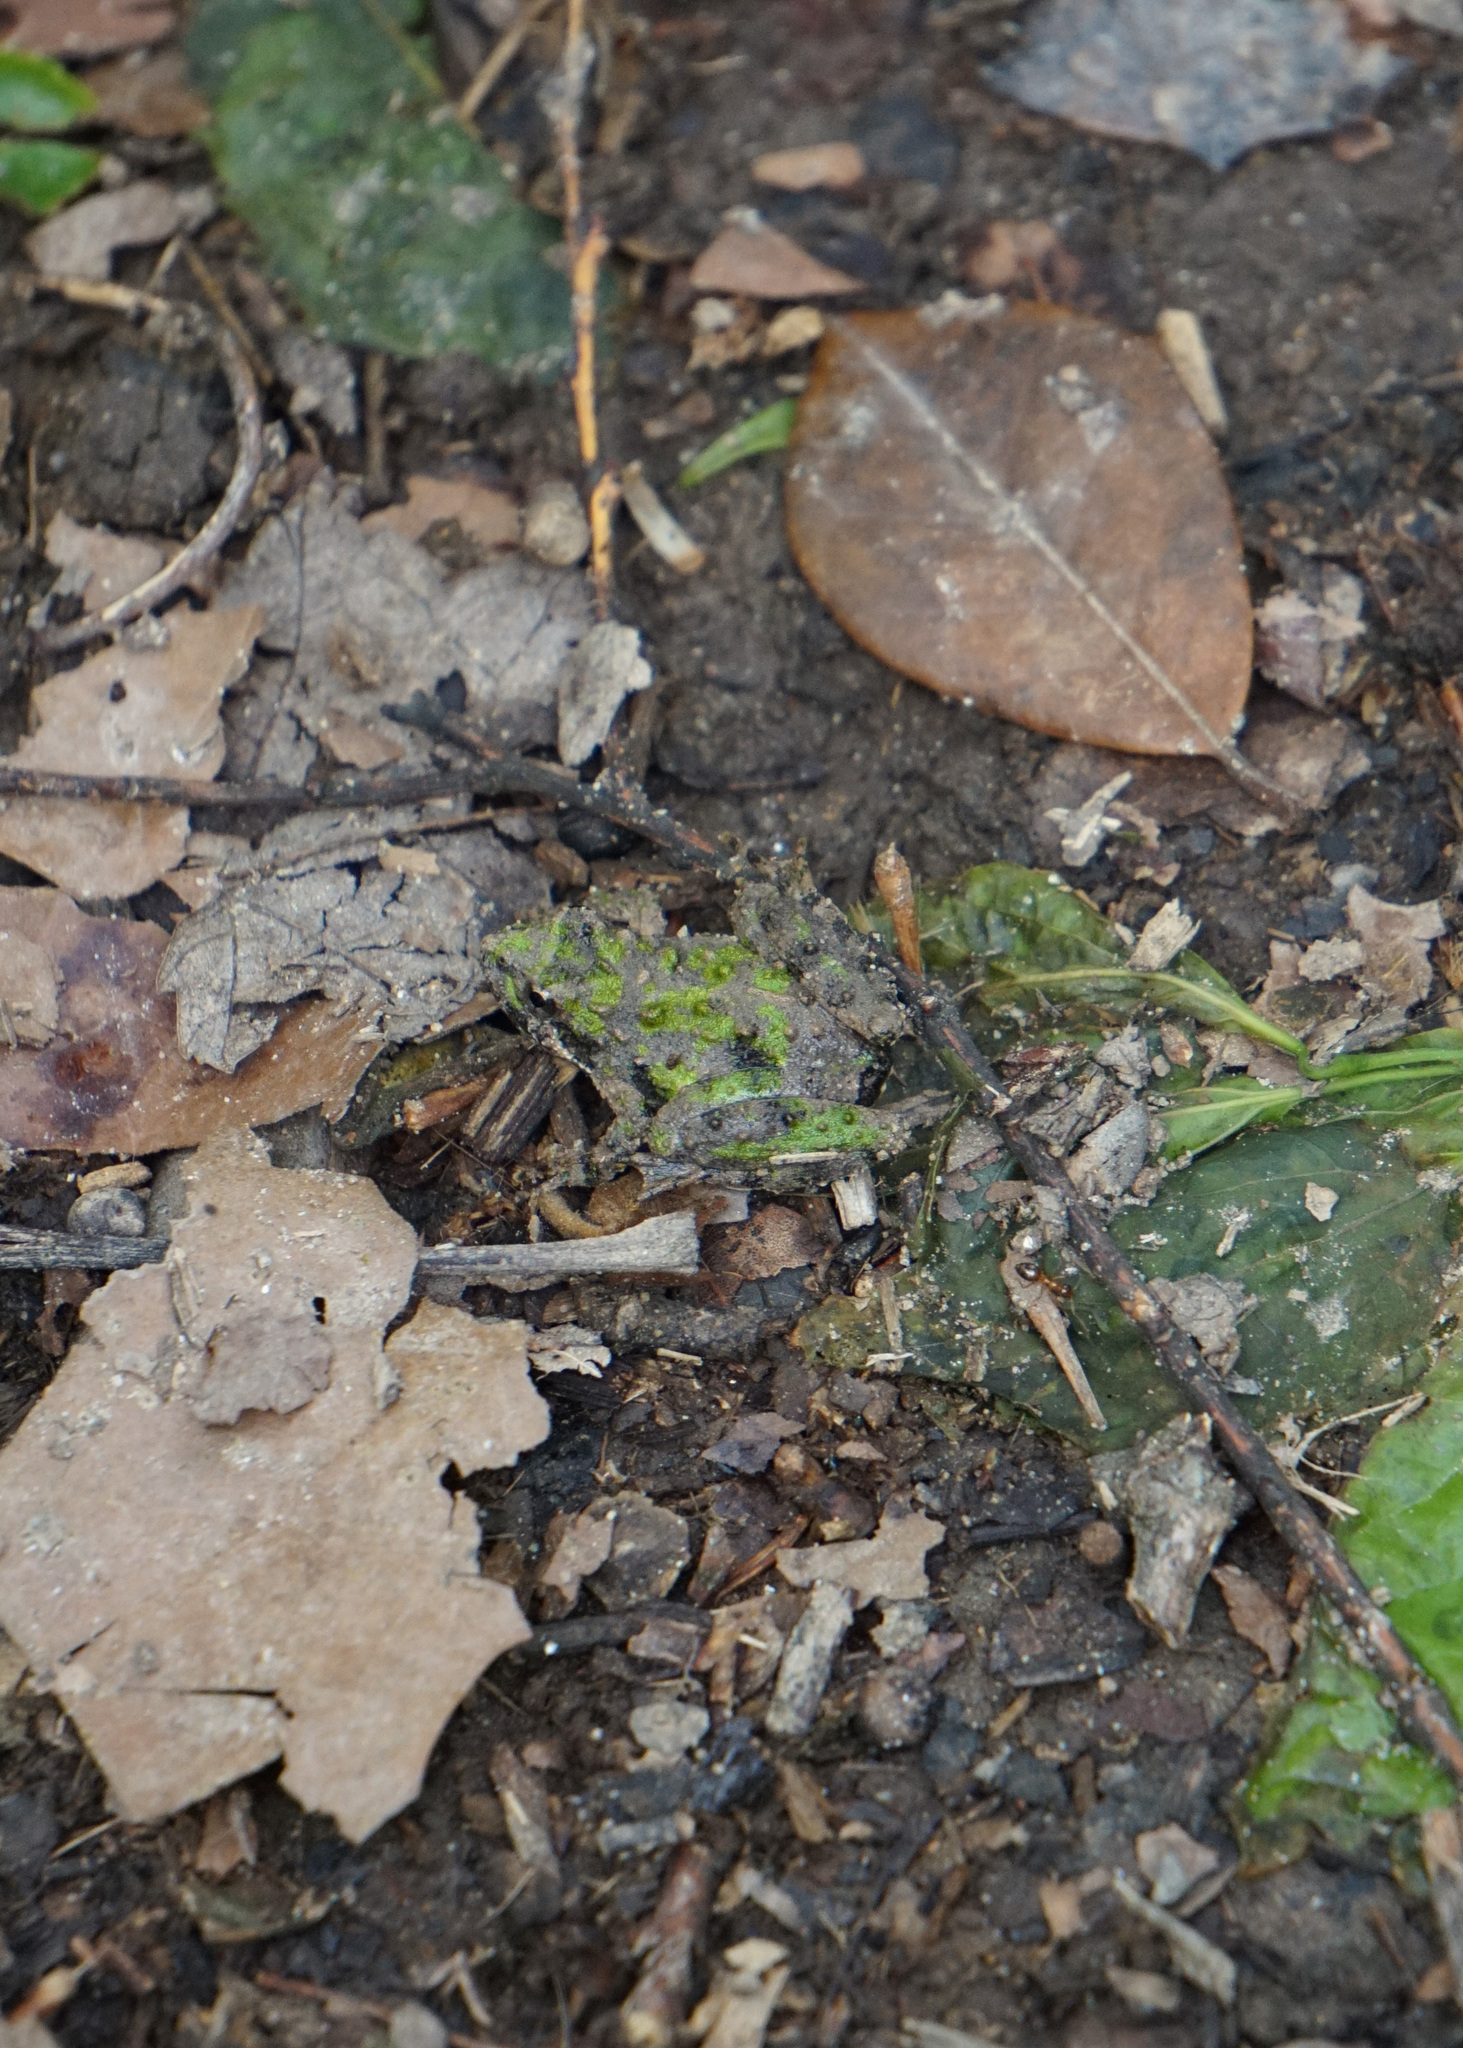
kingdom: Animalia
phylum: Chordata
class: Amphibia
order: Anura
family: Hylidae
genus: Acris
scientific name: Acris crepitans
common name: Northern cricket frog
